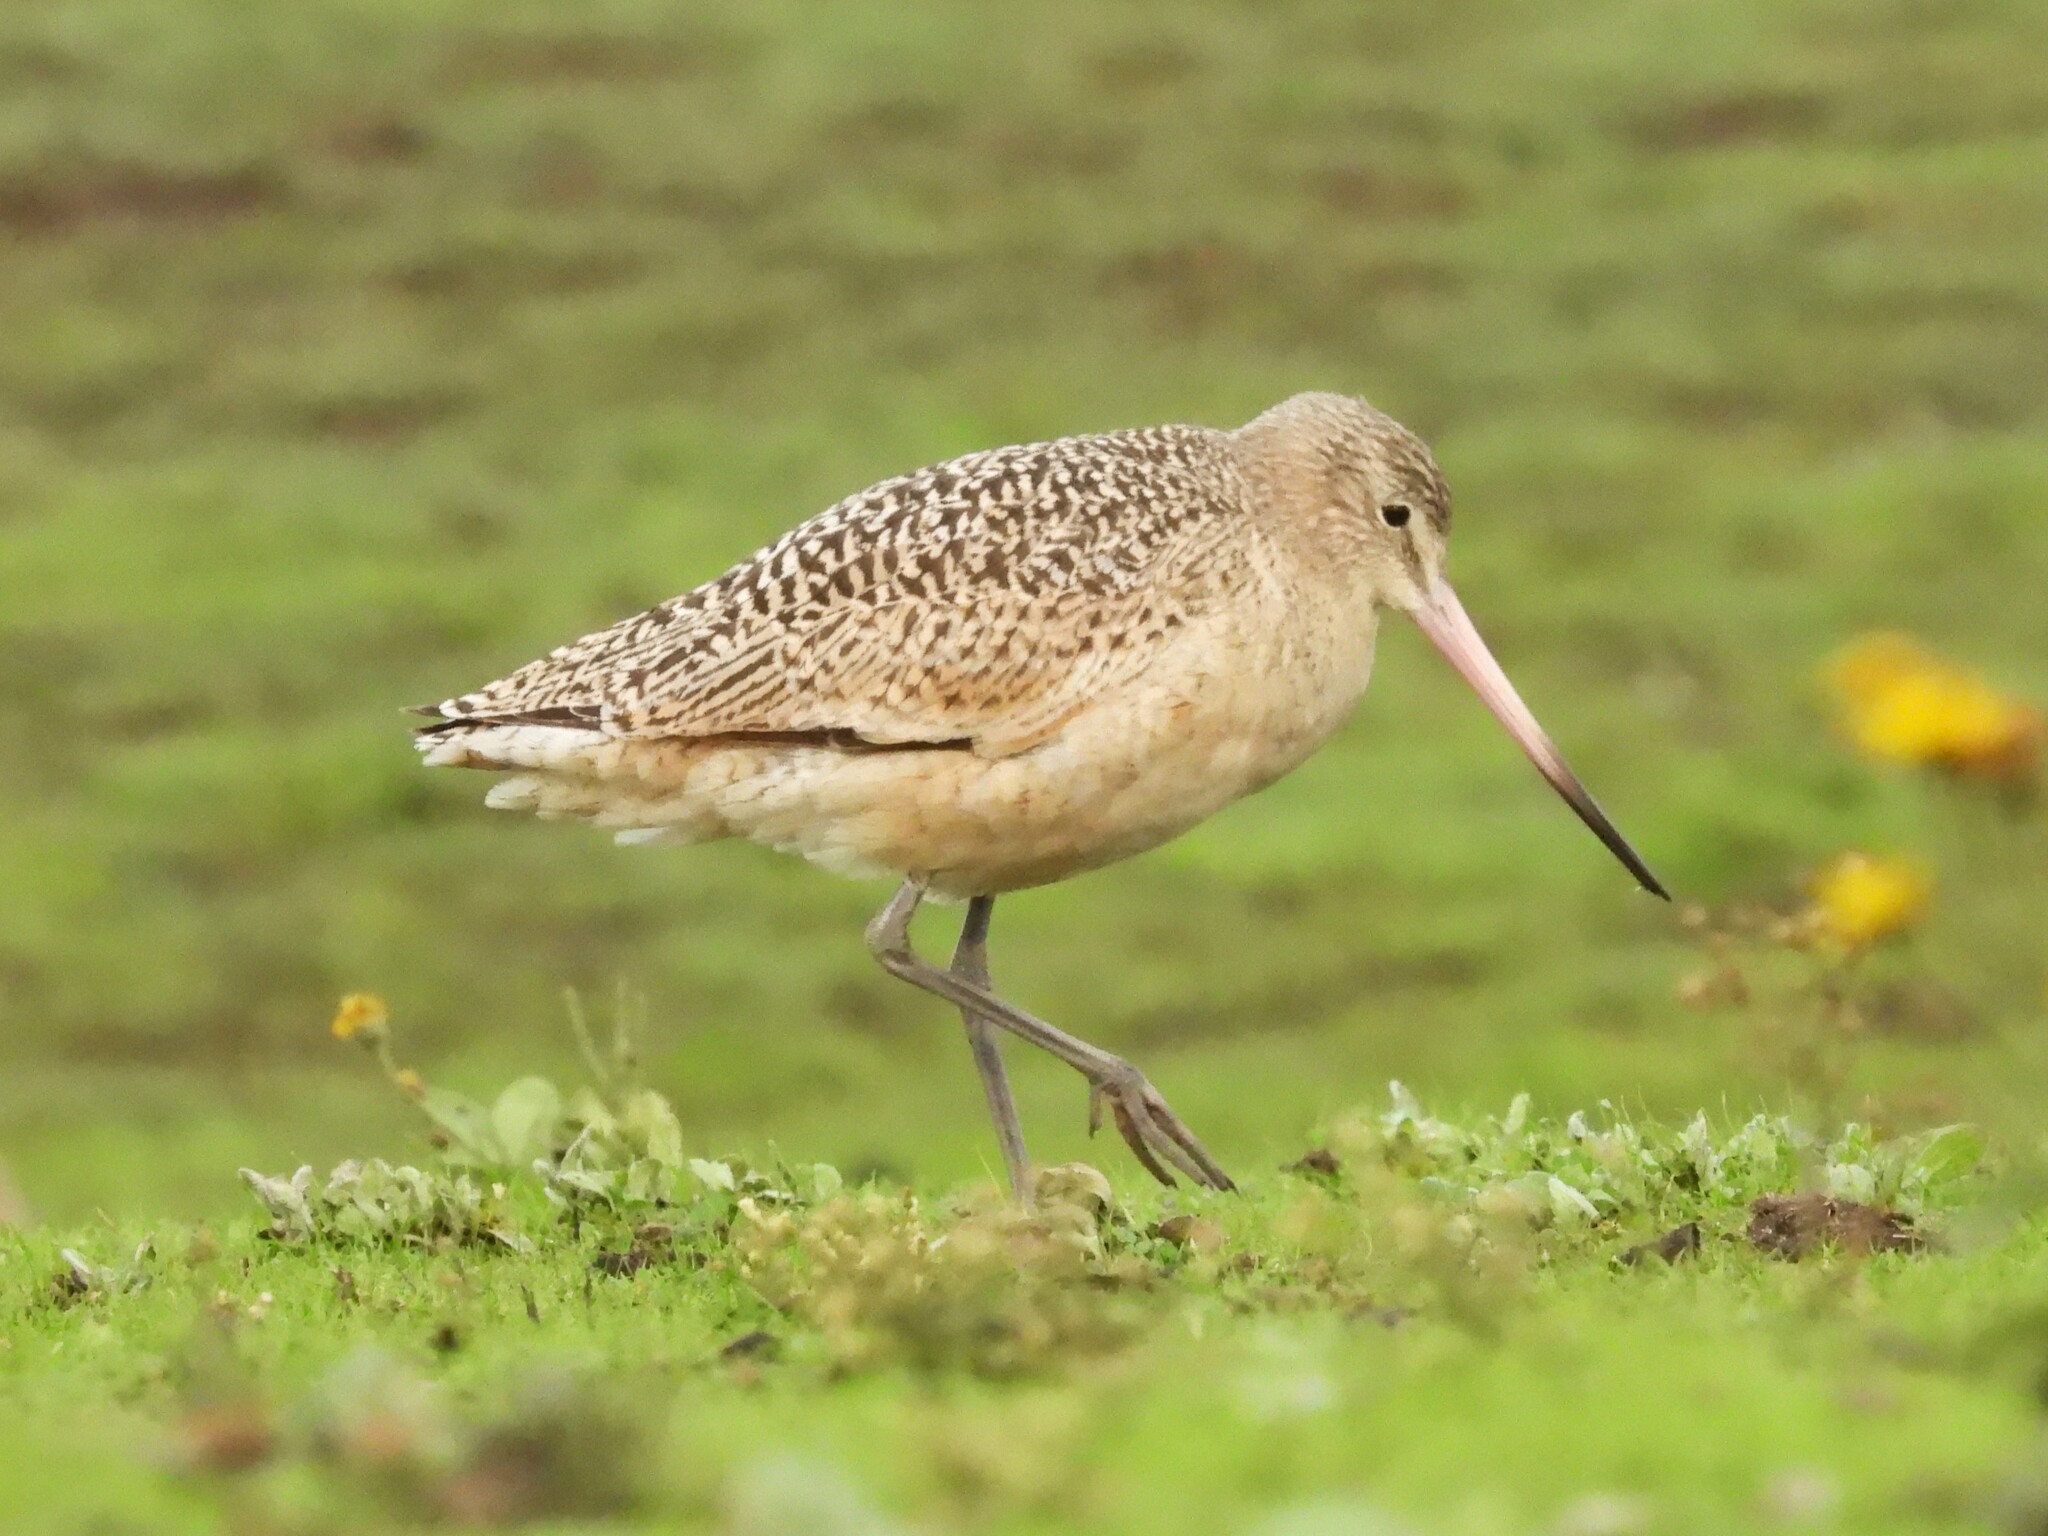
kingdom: Animalia
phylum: Chordata
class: Aves
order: Charadriiformes
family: Scolopacidae
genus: Limosa
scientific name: Limosa fedoa
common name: Marbled godwit
